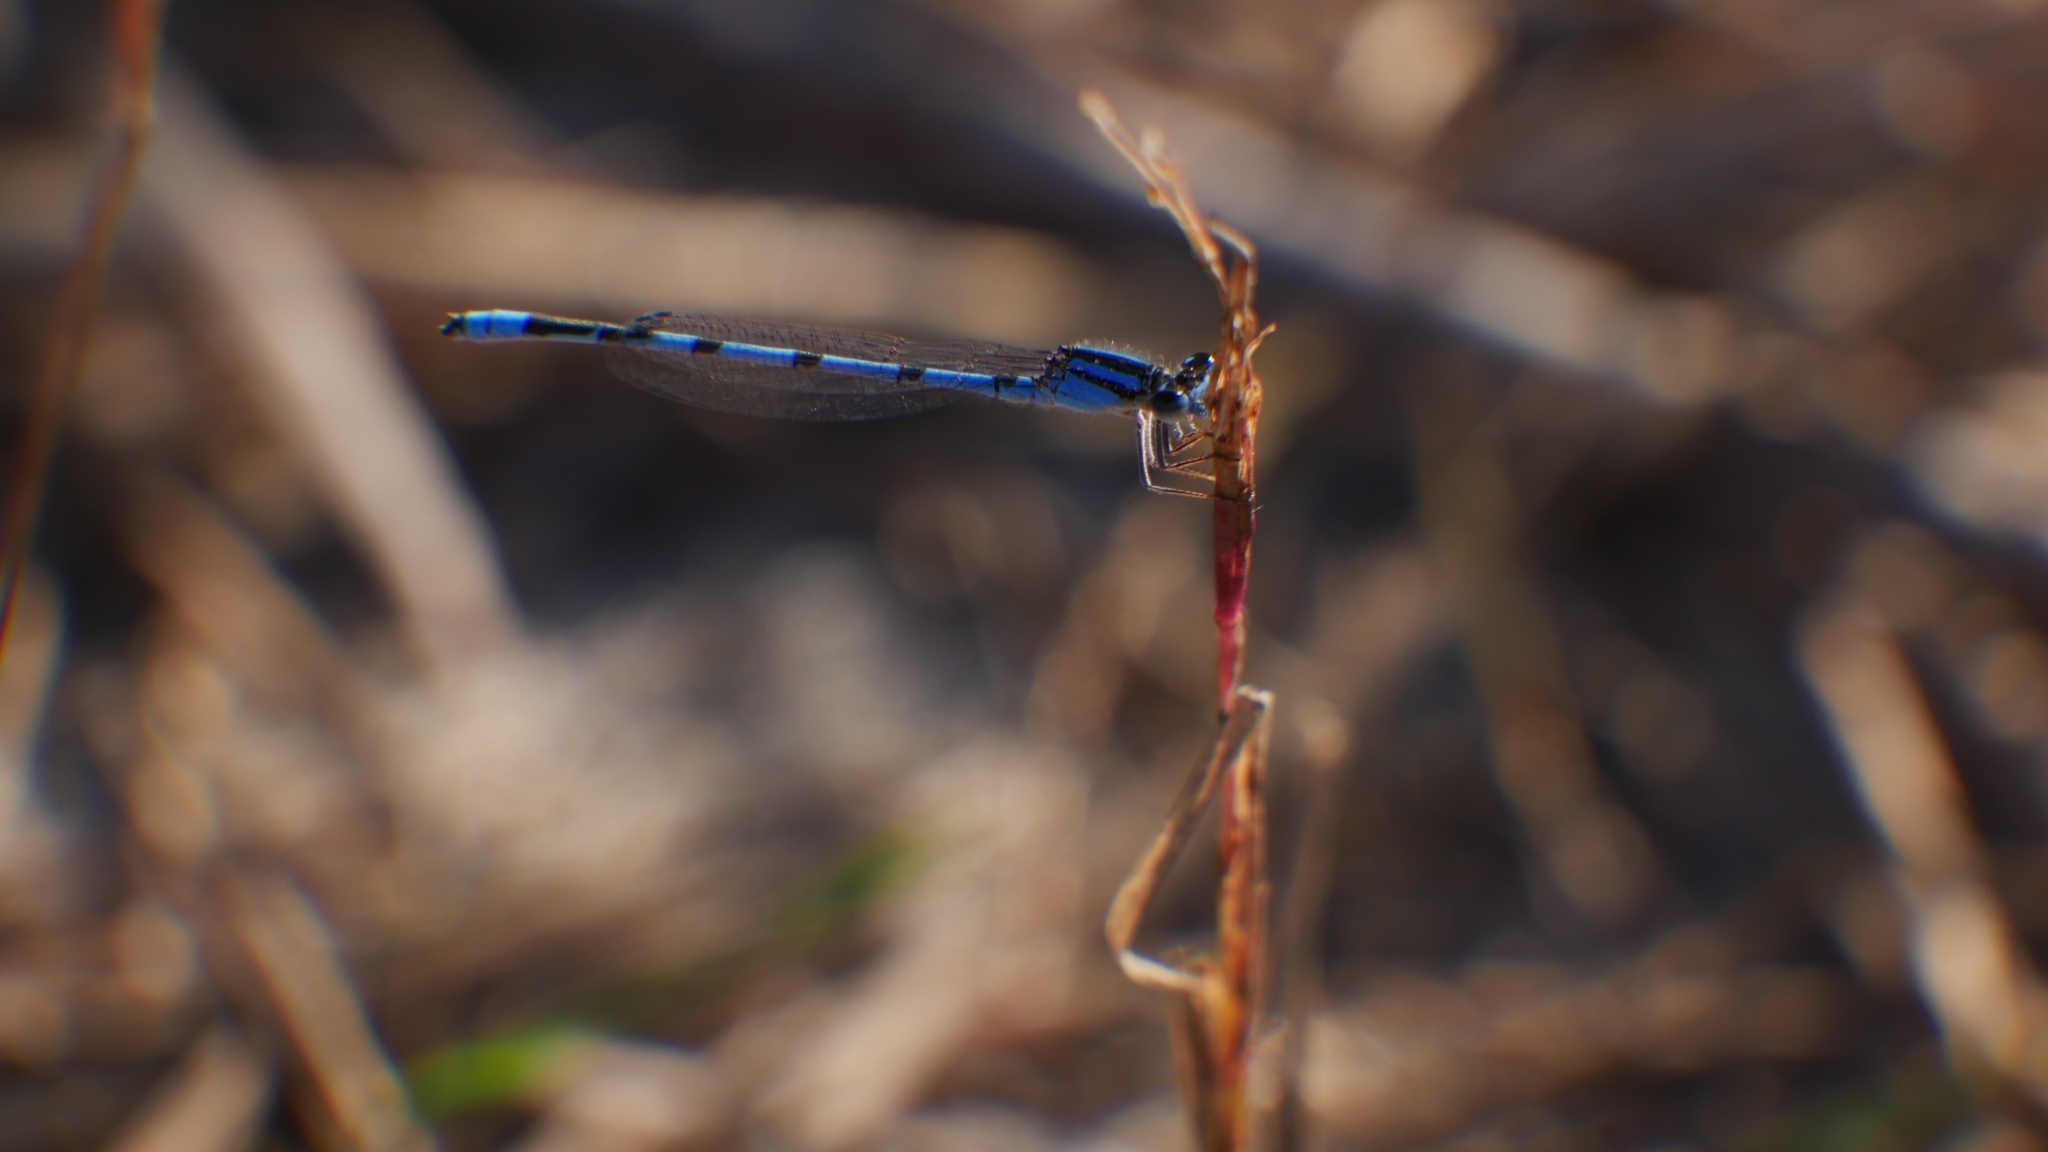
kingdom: Animalia
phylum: Arthropoda
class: Insecta
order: Odonata
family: Coenagrionidae
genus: Enallagma
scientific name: Enallagma civile
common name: Damselfly
